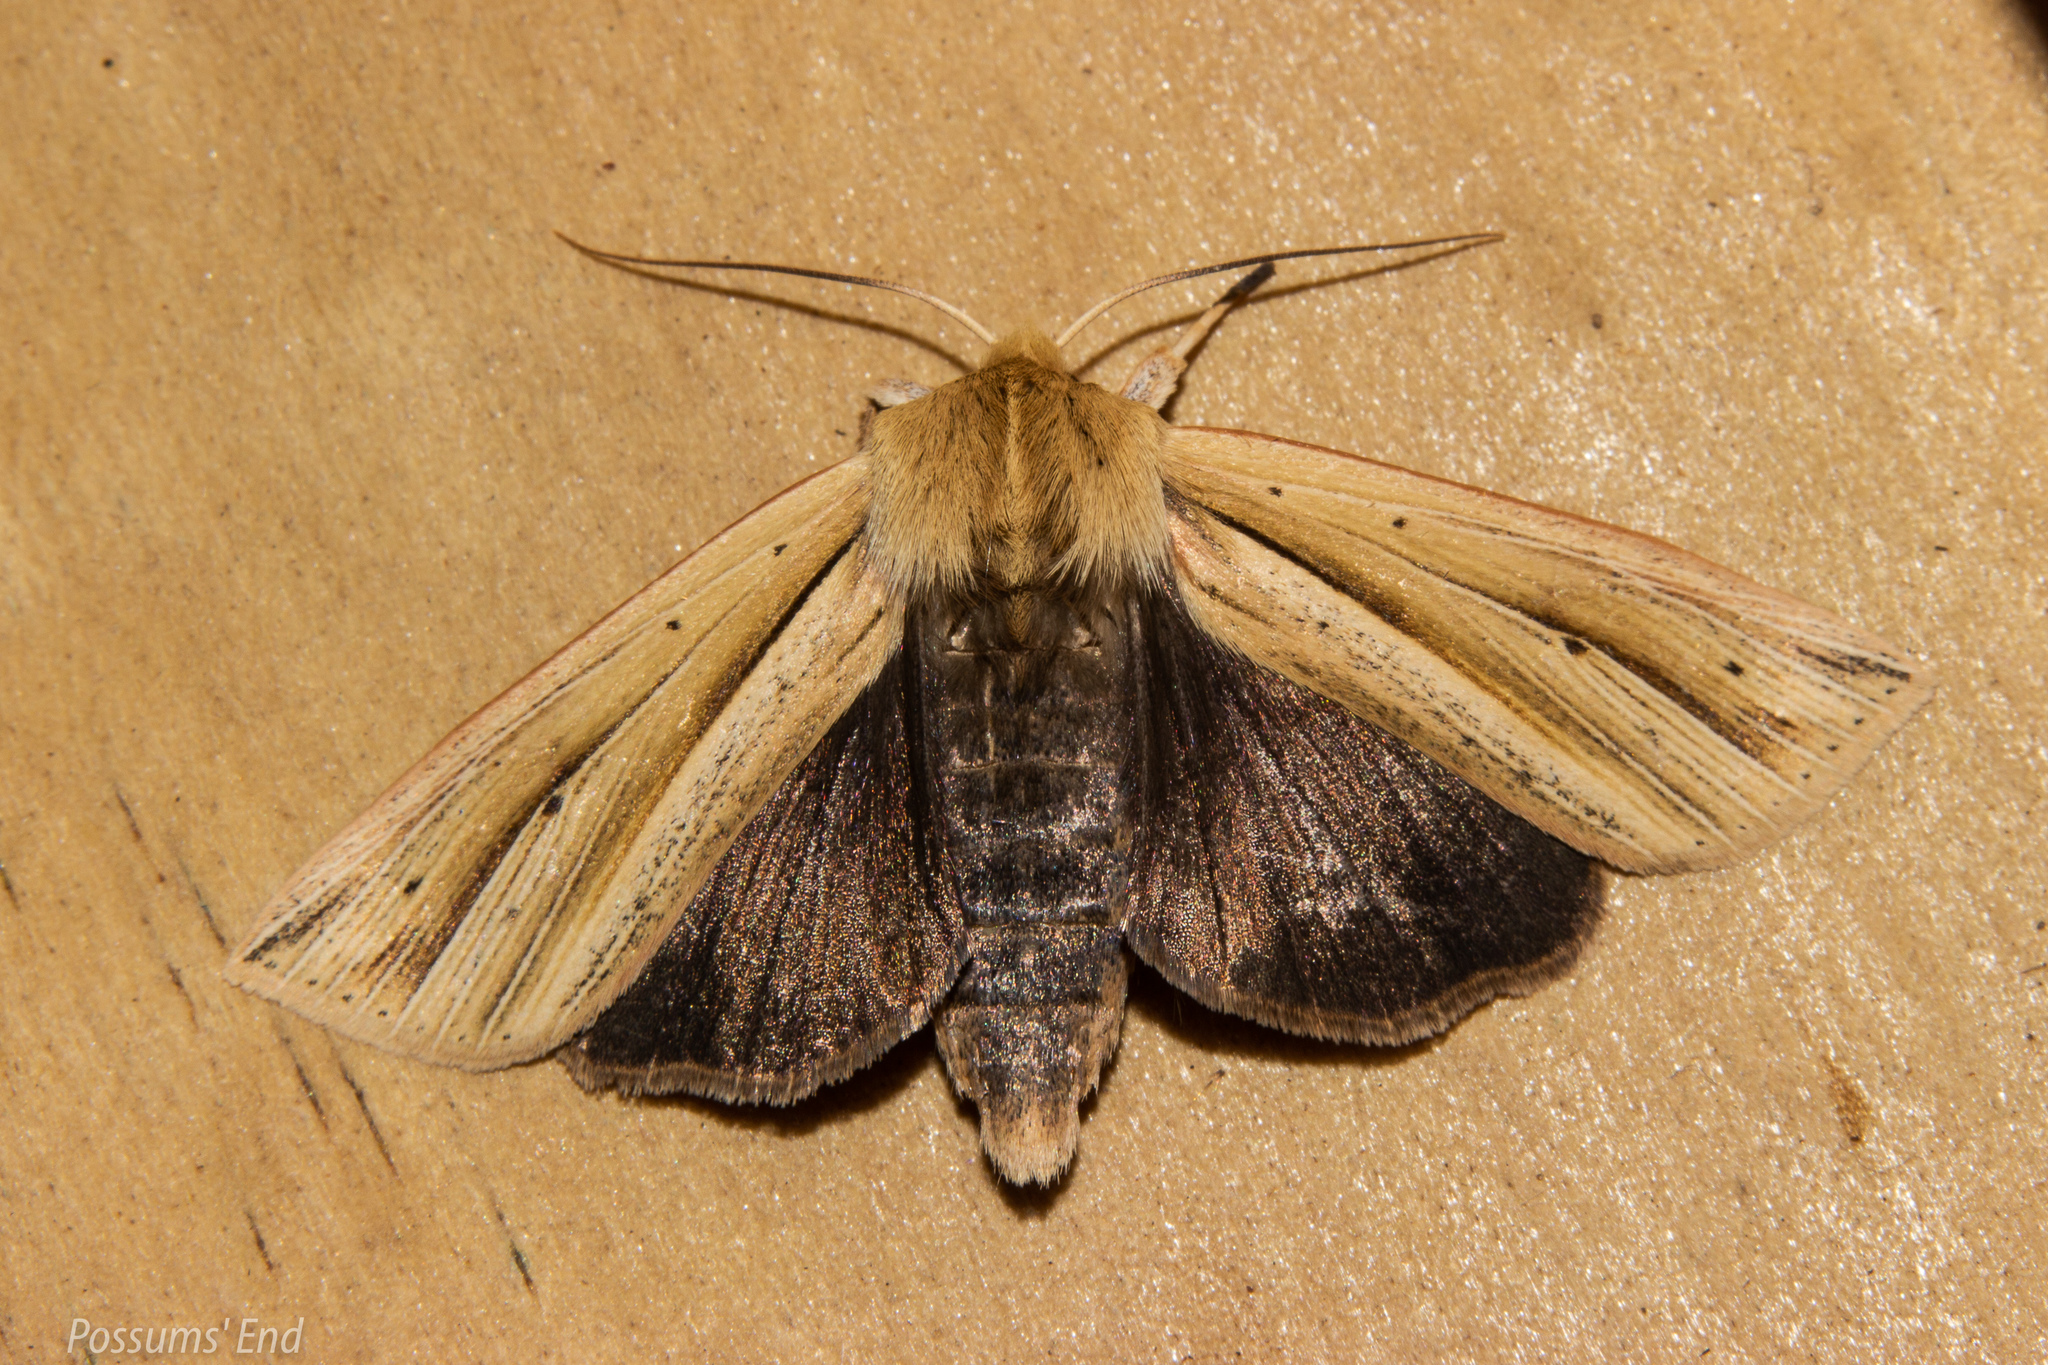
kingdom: Animalia
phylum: Arthropoda
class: Insecta
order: Lepidoptera
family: Noctuidae
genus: Ichneutica
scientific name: Ichneutica sulcana
